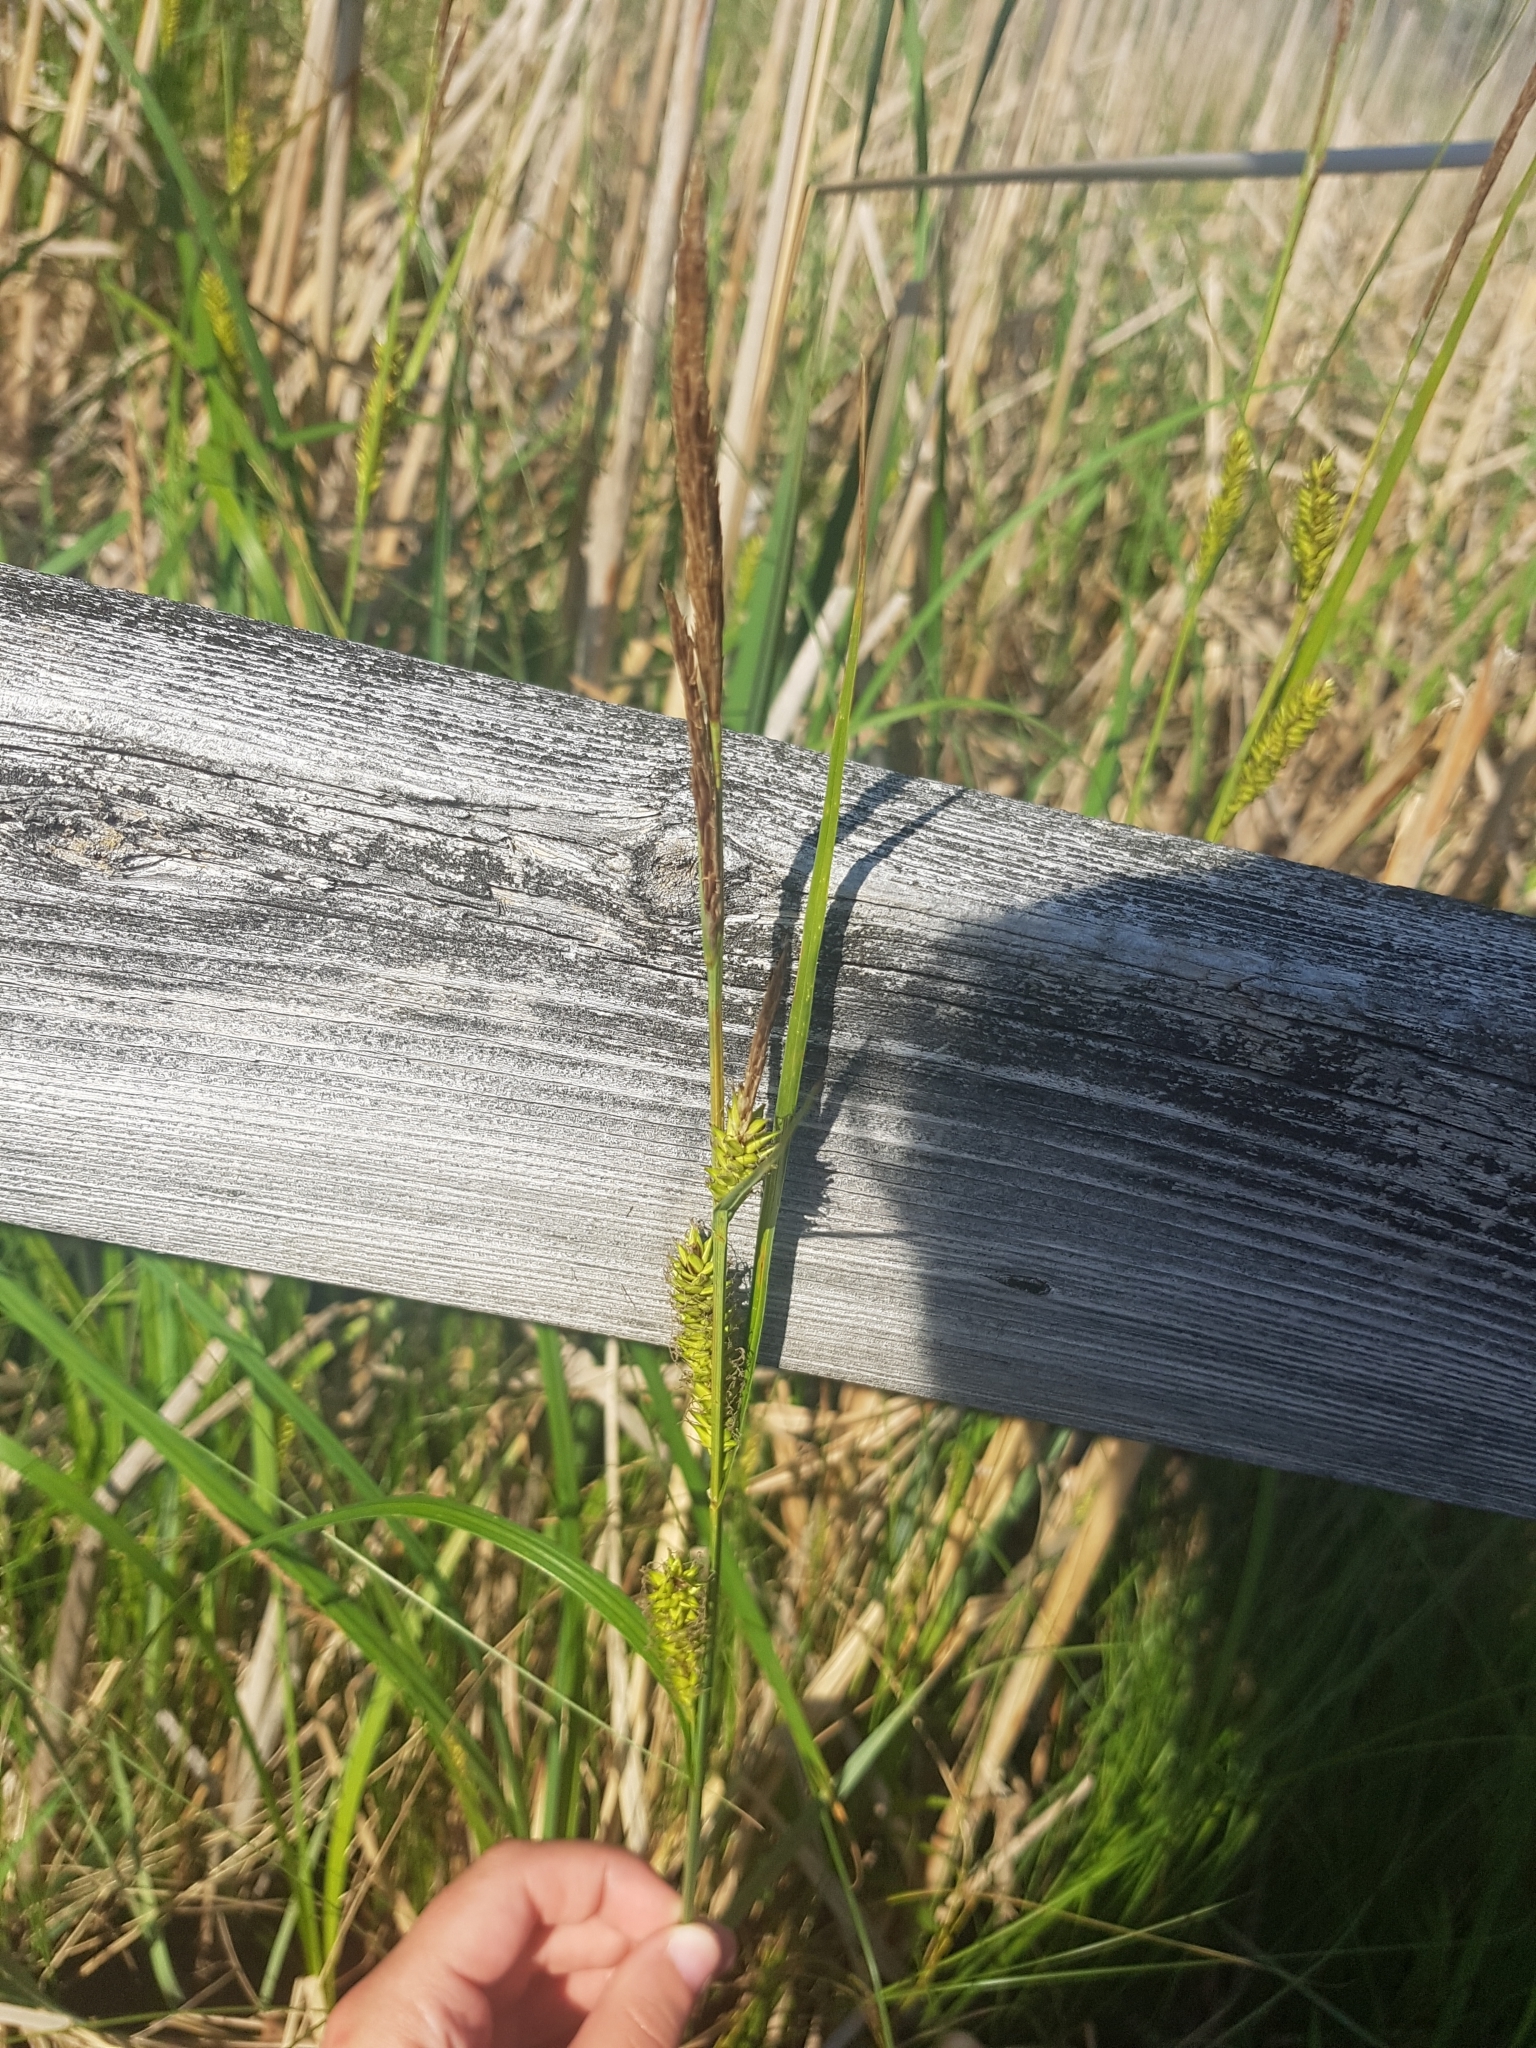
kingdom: Plantae
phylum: Tracheophyta
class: Liliopsida
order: Poales
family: Cyperaceae
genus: Carex
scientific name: Carex lacustris
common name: Common lake sedge
